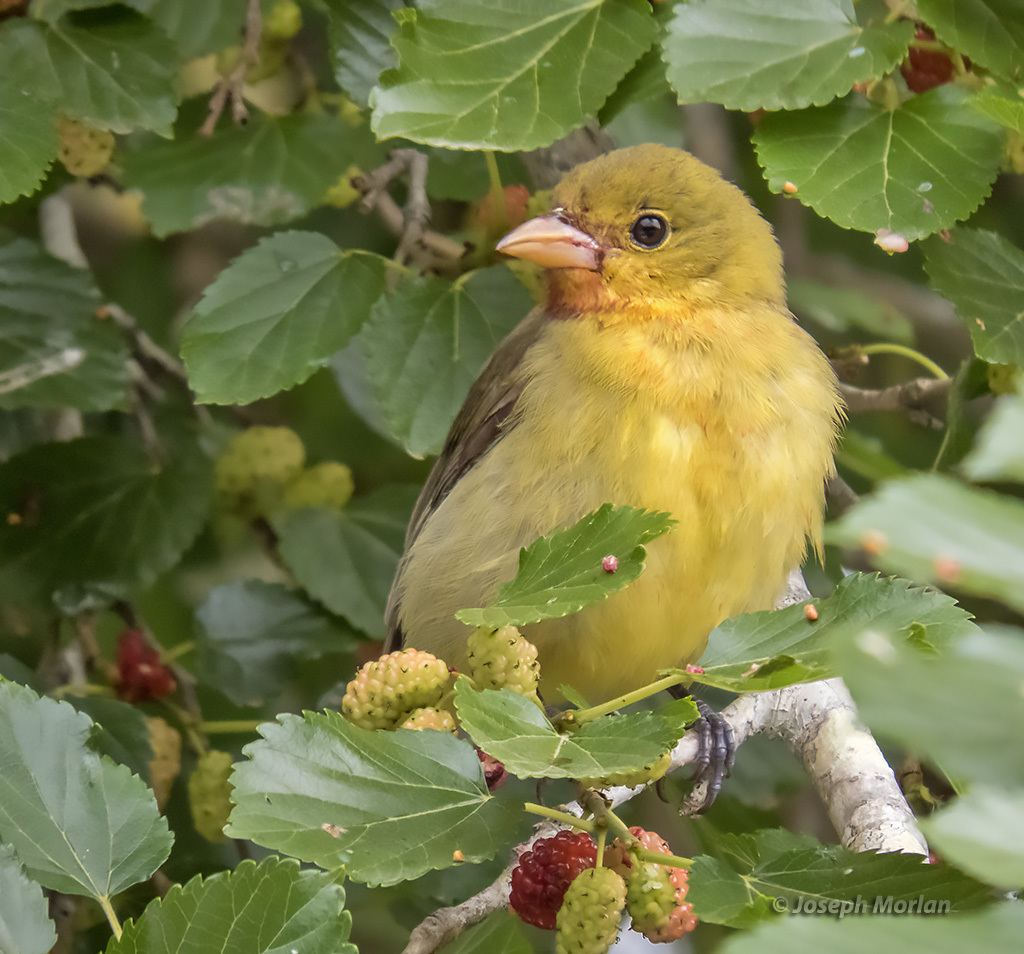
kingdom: Animalia
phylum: Chordata
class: Aves
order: Passeriformes
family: Cardinalidae
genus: Piranga
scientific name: Piranga olivacea
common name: Scarlet tanager
